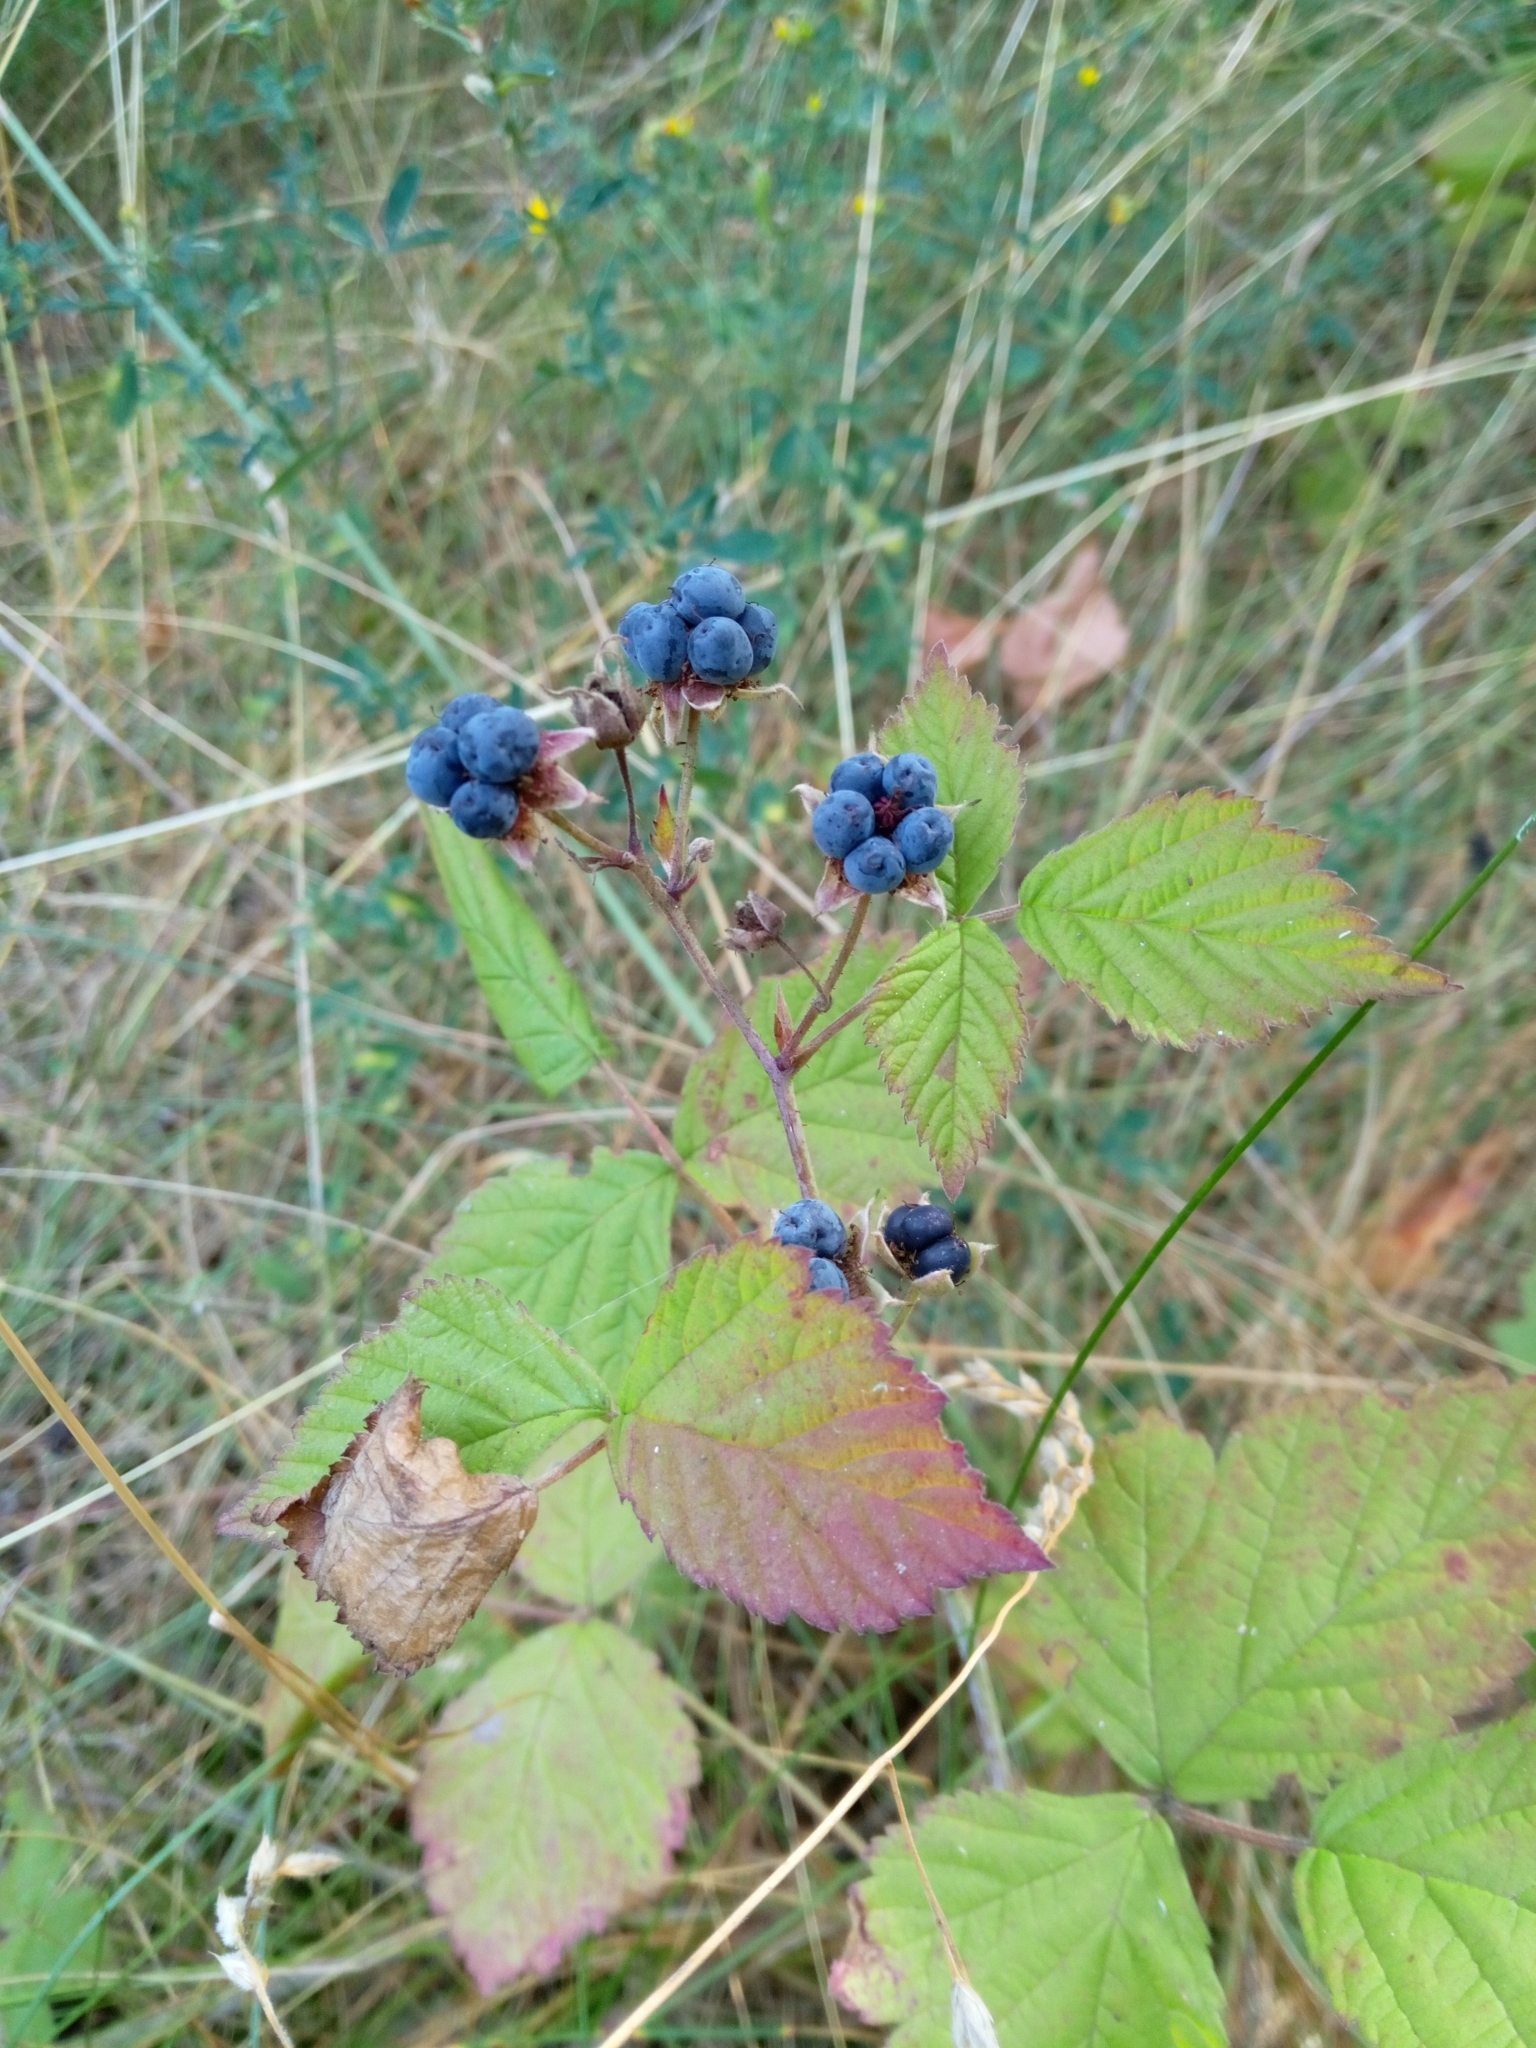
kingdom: Plantae
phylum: Tracheophyta
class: Magnoliopsida
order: Rosales
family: Rosaceae
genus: Rubus
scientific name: Rubus caesius
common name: Dewberry
